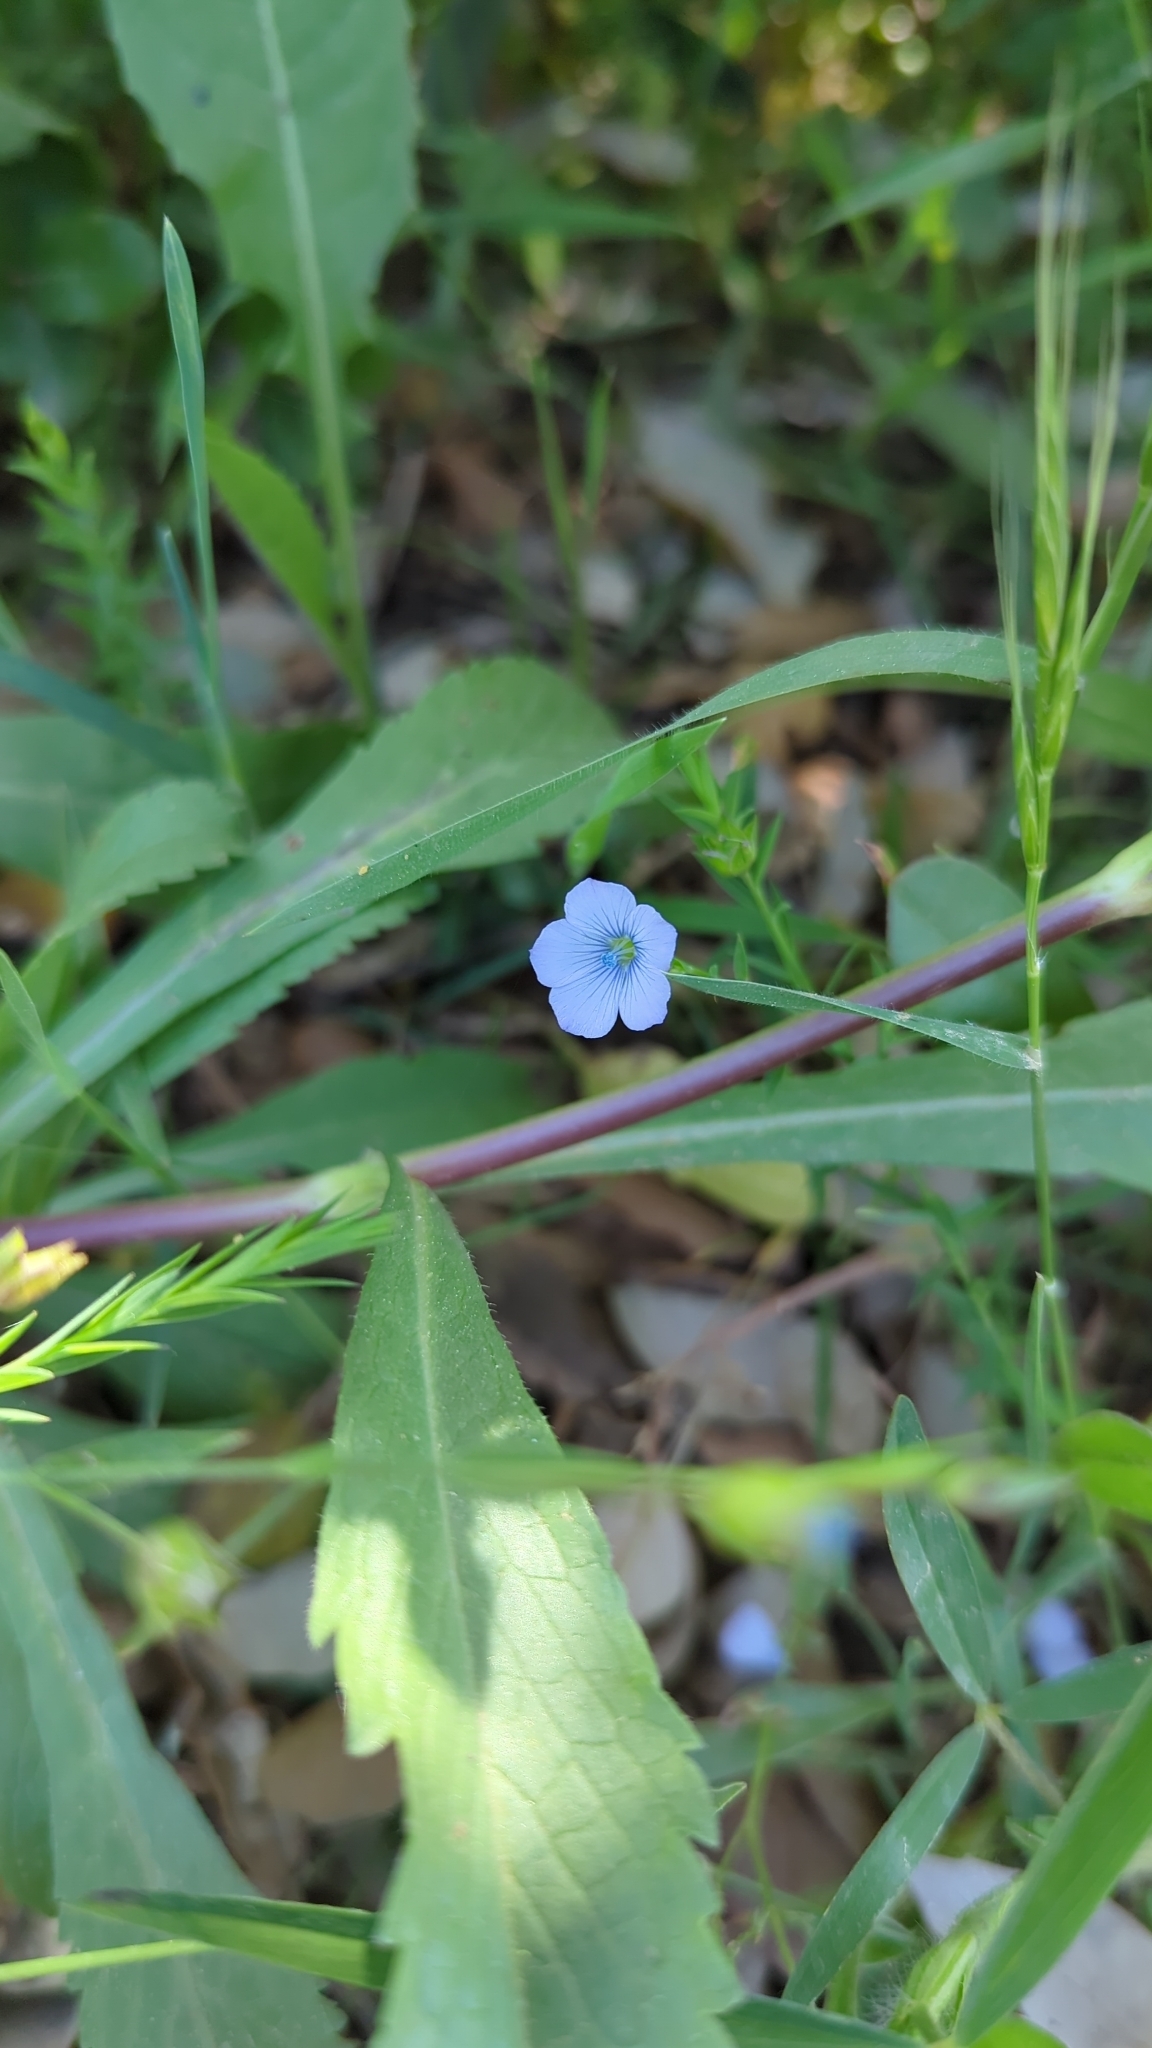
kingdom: Plantae
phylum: Tracheophyta
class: Magnoliopsida
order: Malpighiales
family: Linaceae
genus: Linum
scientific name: Linum bienne
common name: Pale flax
